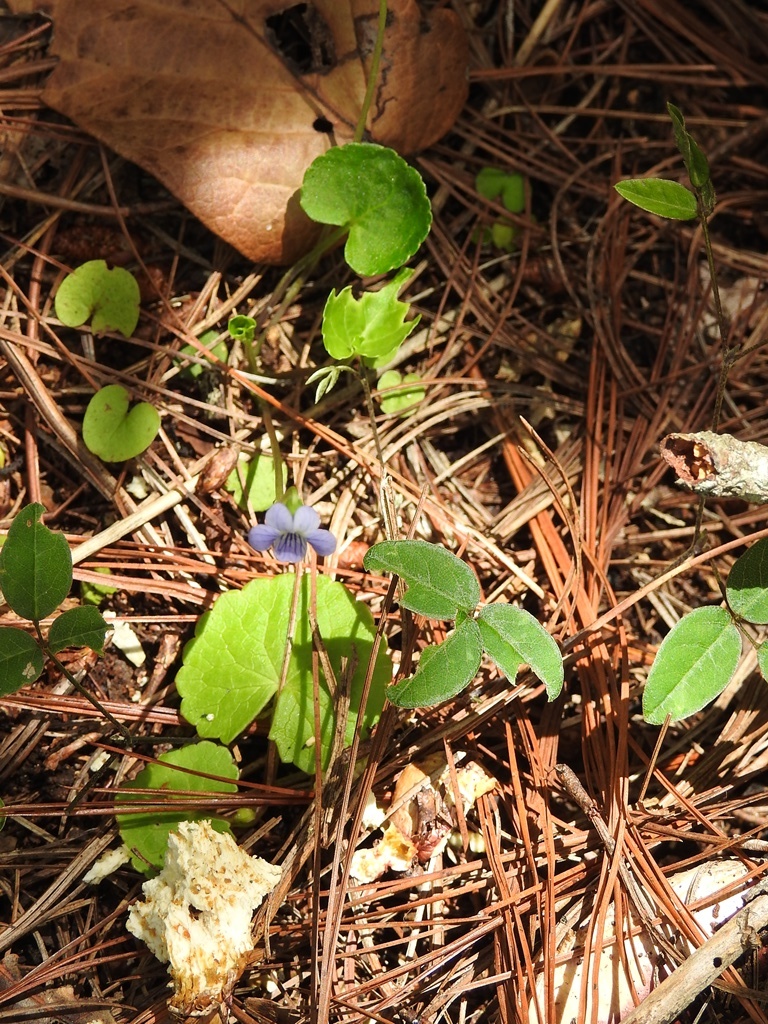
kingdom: Plantae
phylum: Tracheophyta
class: Magnoliopsida
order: Malpighiales
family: Violaceae
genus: Viola
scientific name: Viola hookeriana
